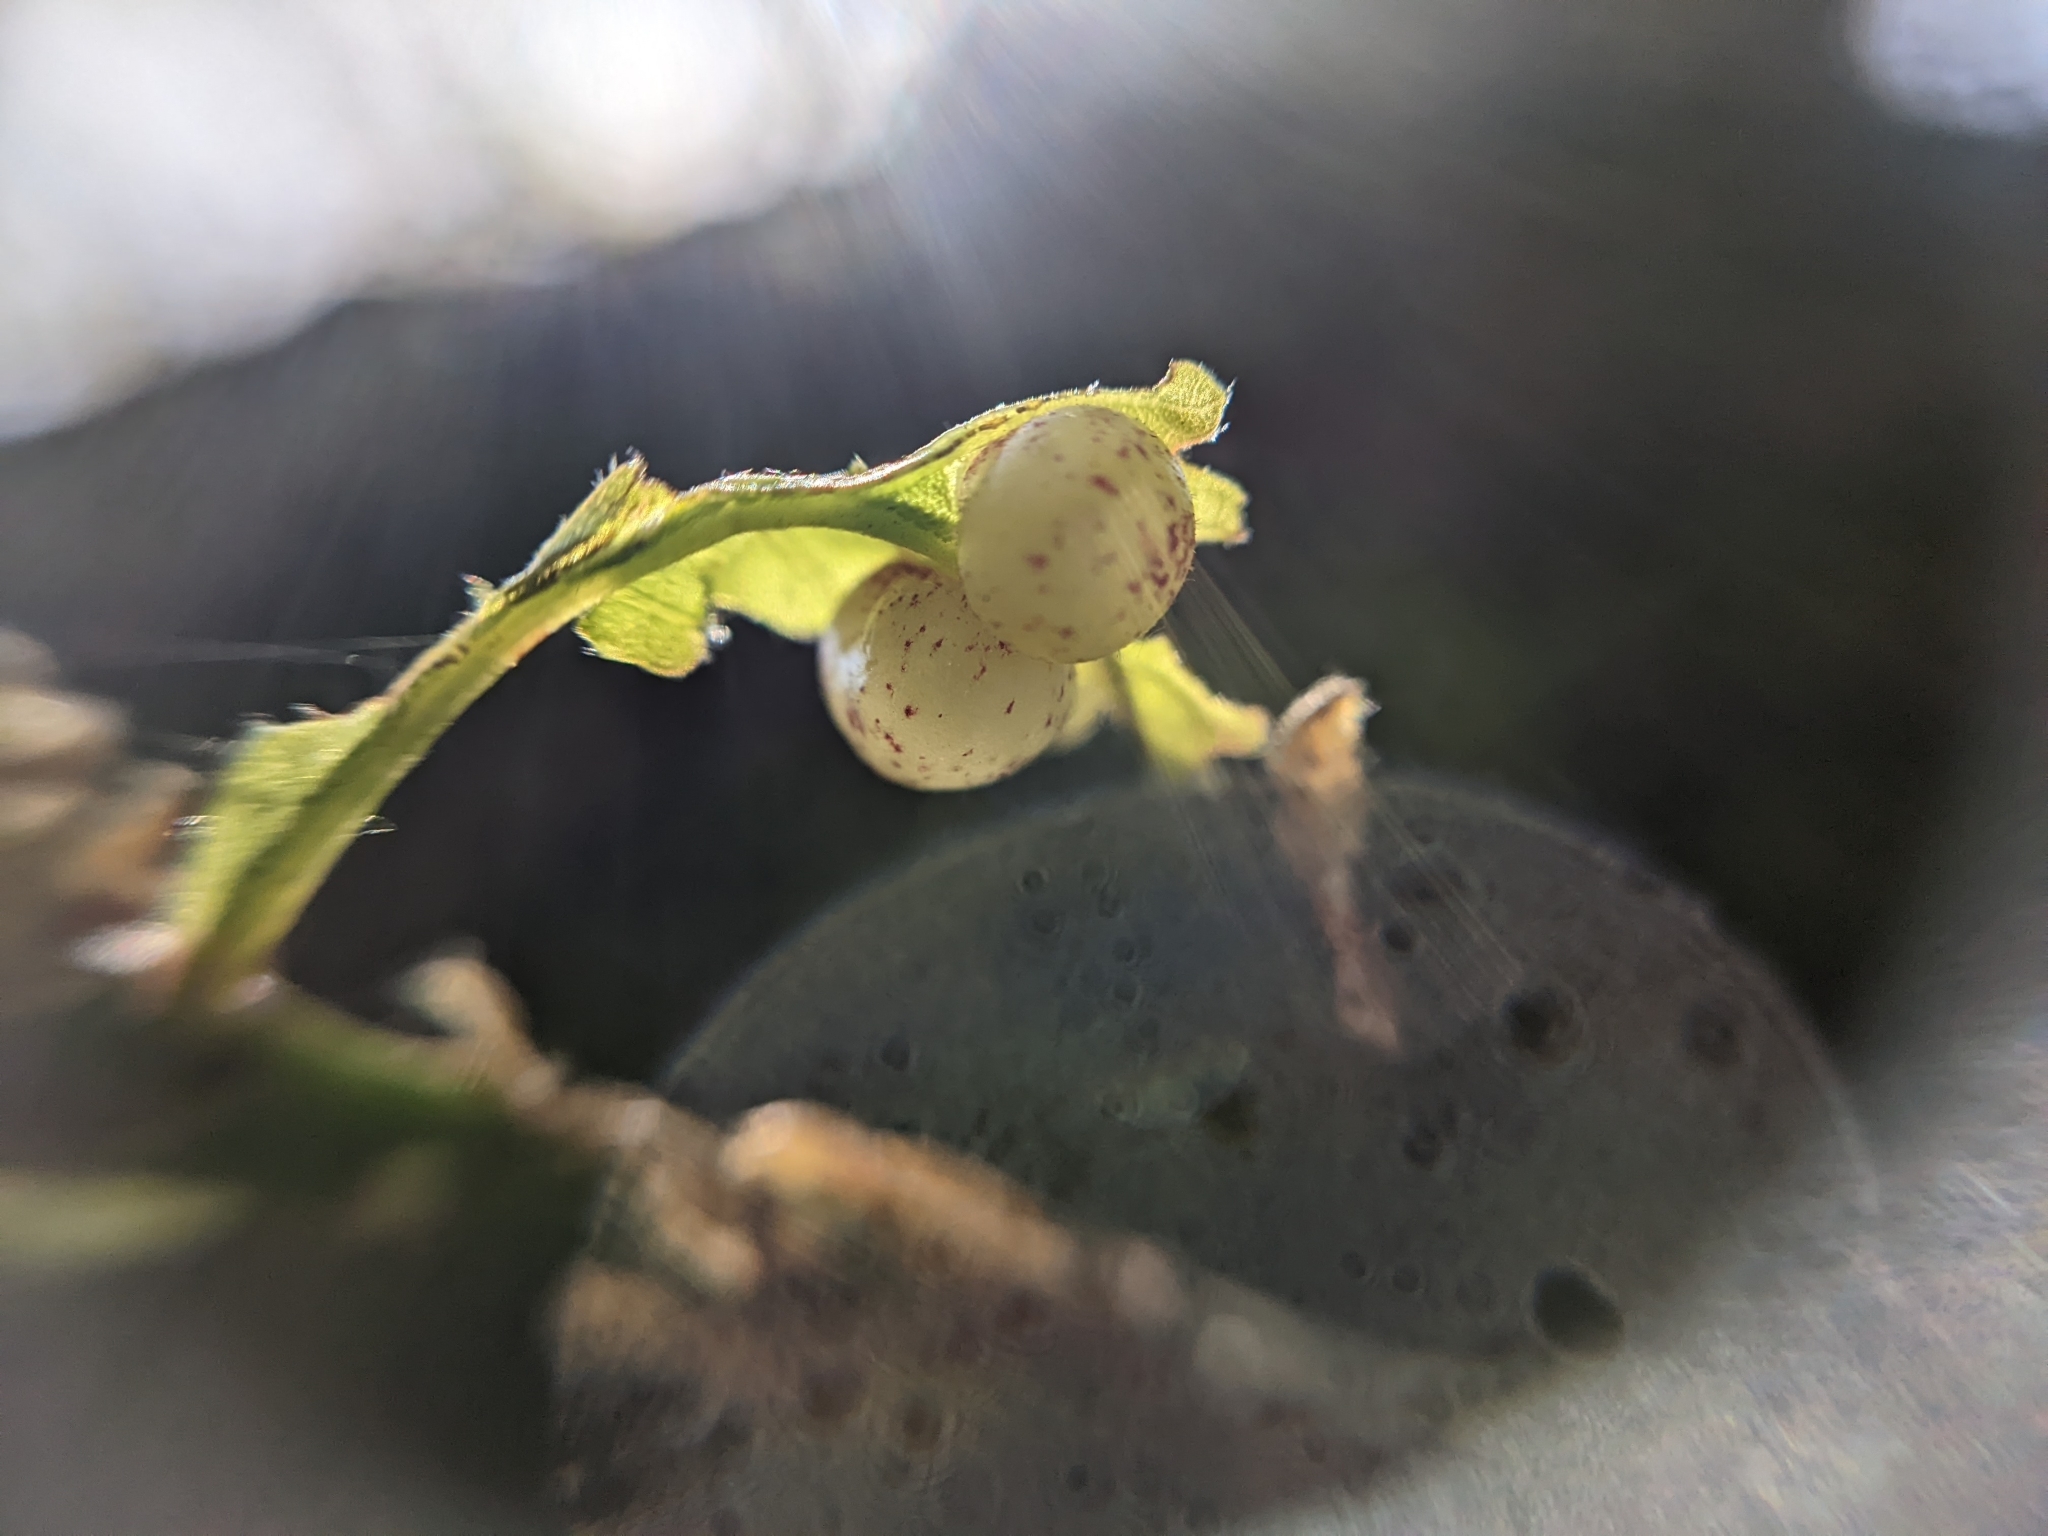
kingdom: Animalia
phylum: Arthropoda
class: Insecta
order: Hymenoptera
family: Cynipidae
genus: Neuroterus
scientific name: Neuroterus quercusbaccarum
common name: Common spangle gall
